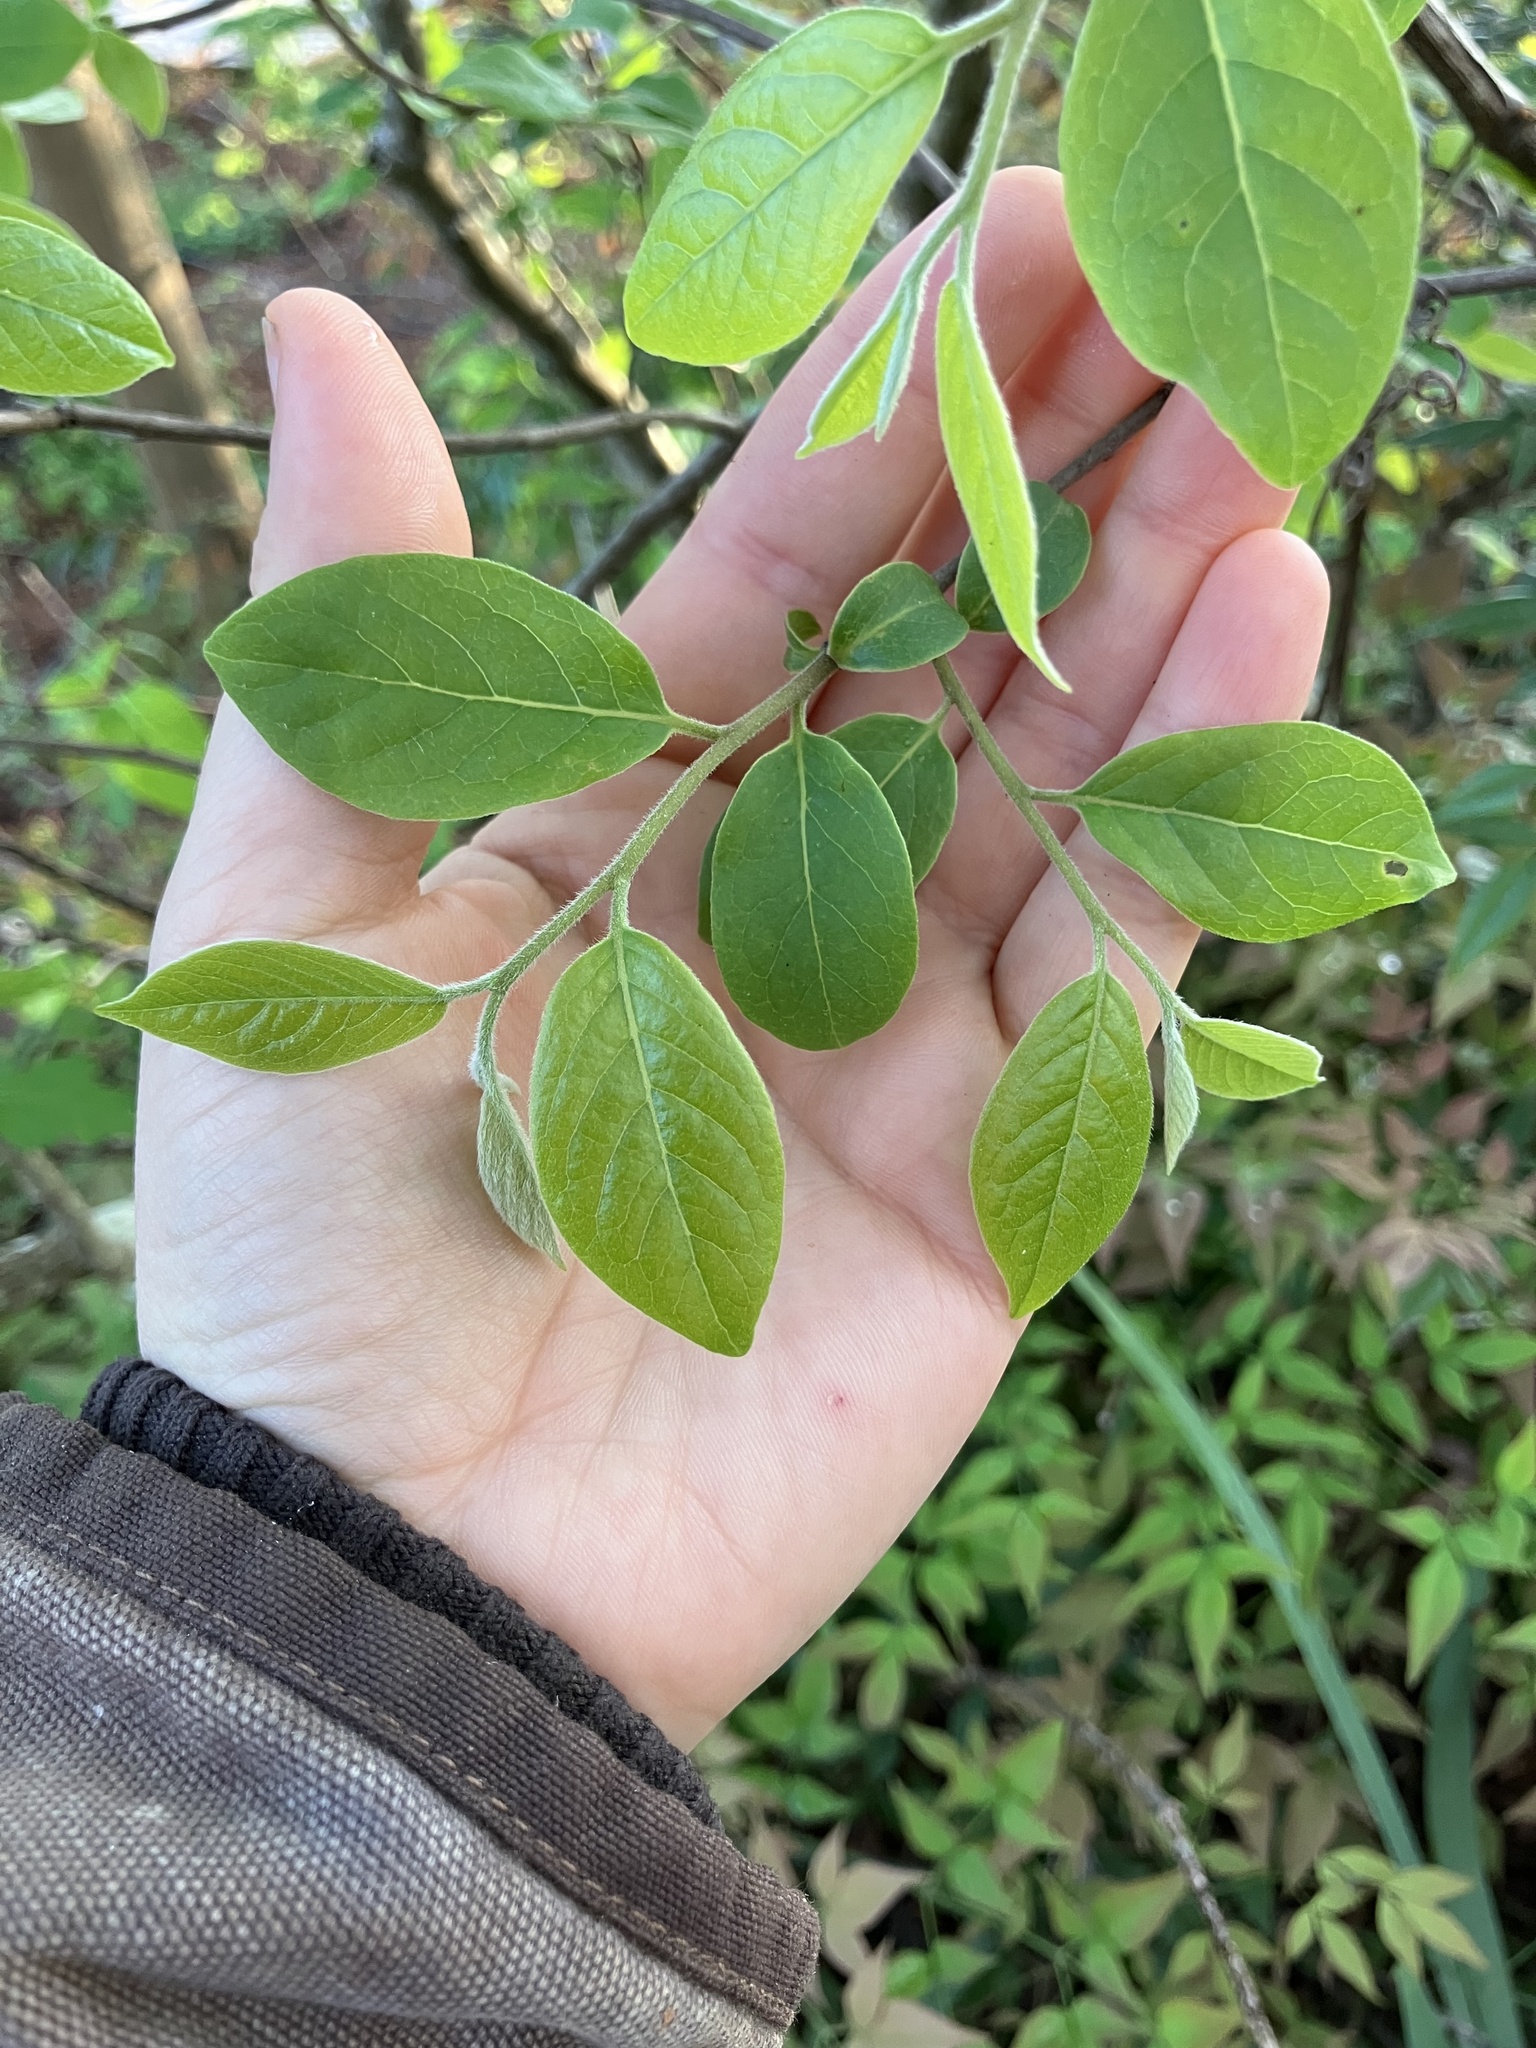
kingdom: Plantae
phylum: Tracheophyta
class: Magnoliopsida
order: Ericales
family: Ebenaceae
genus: Diospyros
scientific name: Diospyros virginiana
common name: Persimmon
